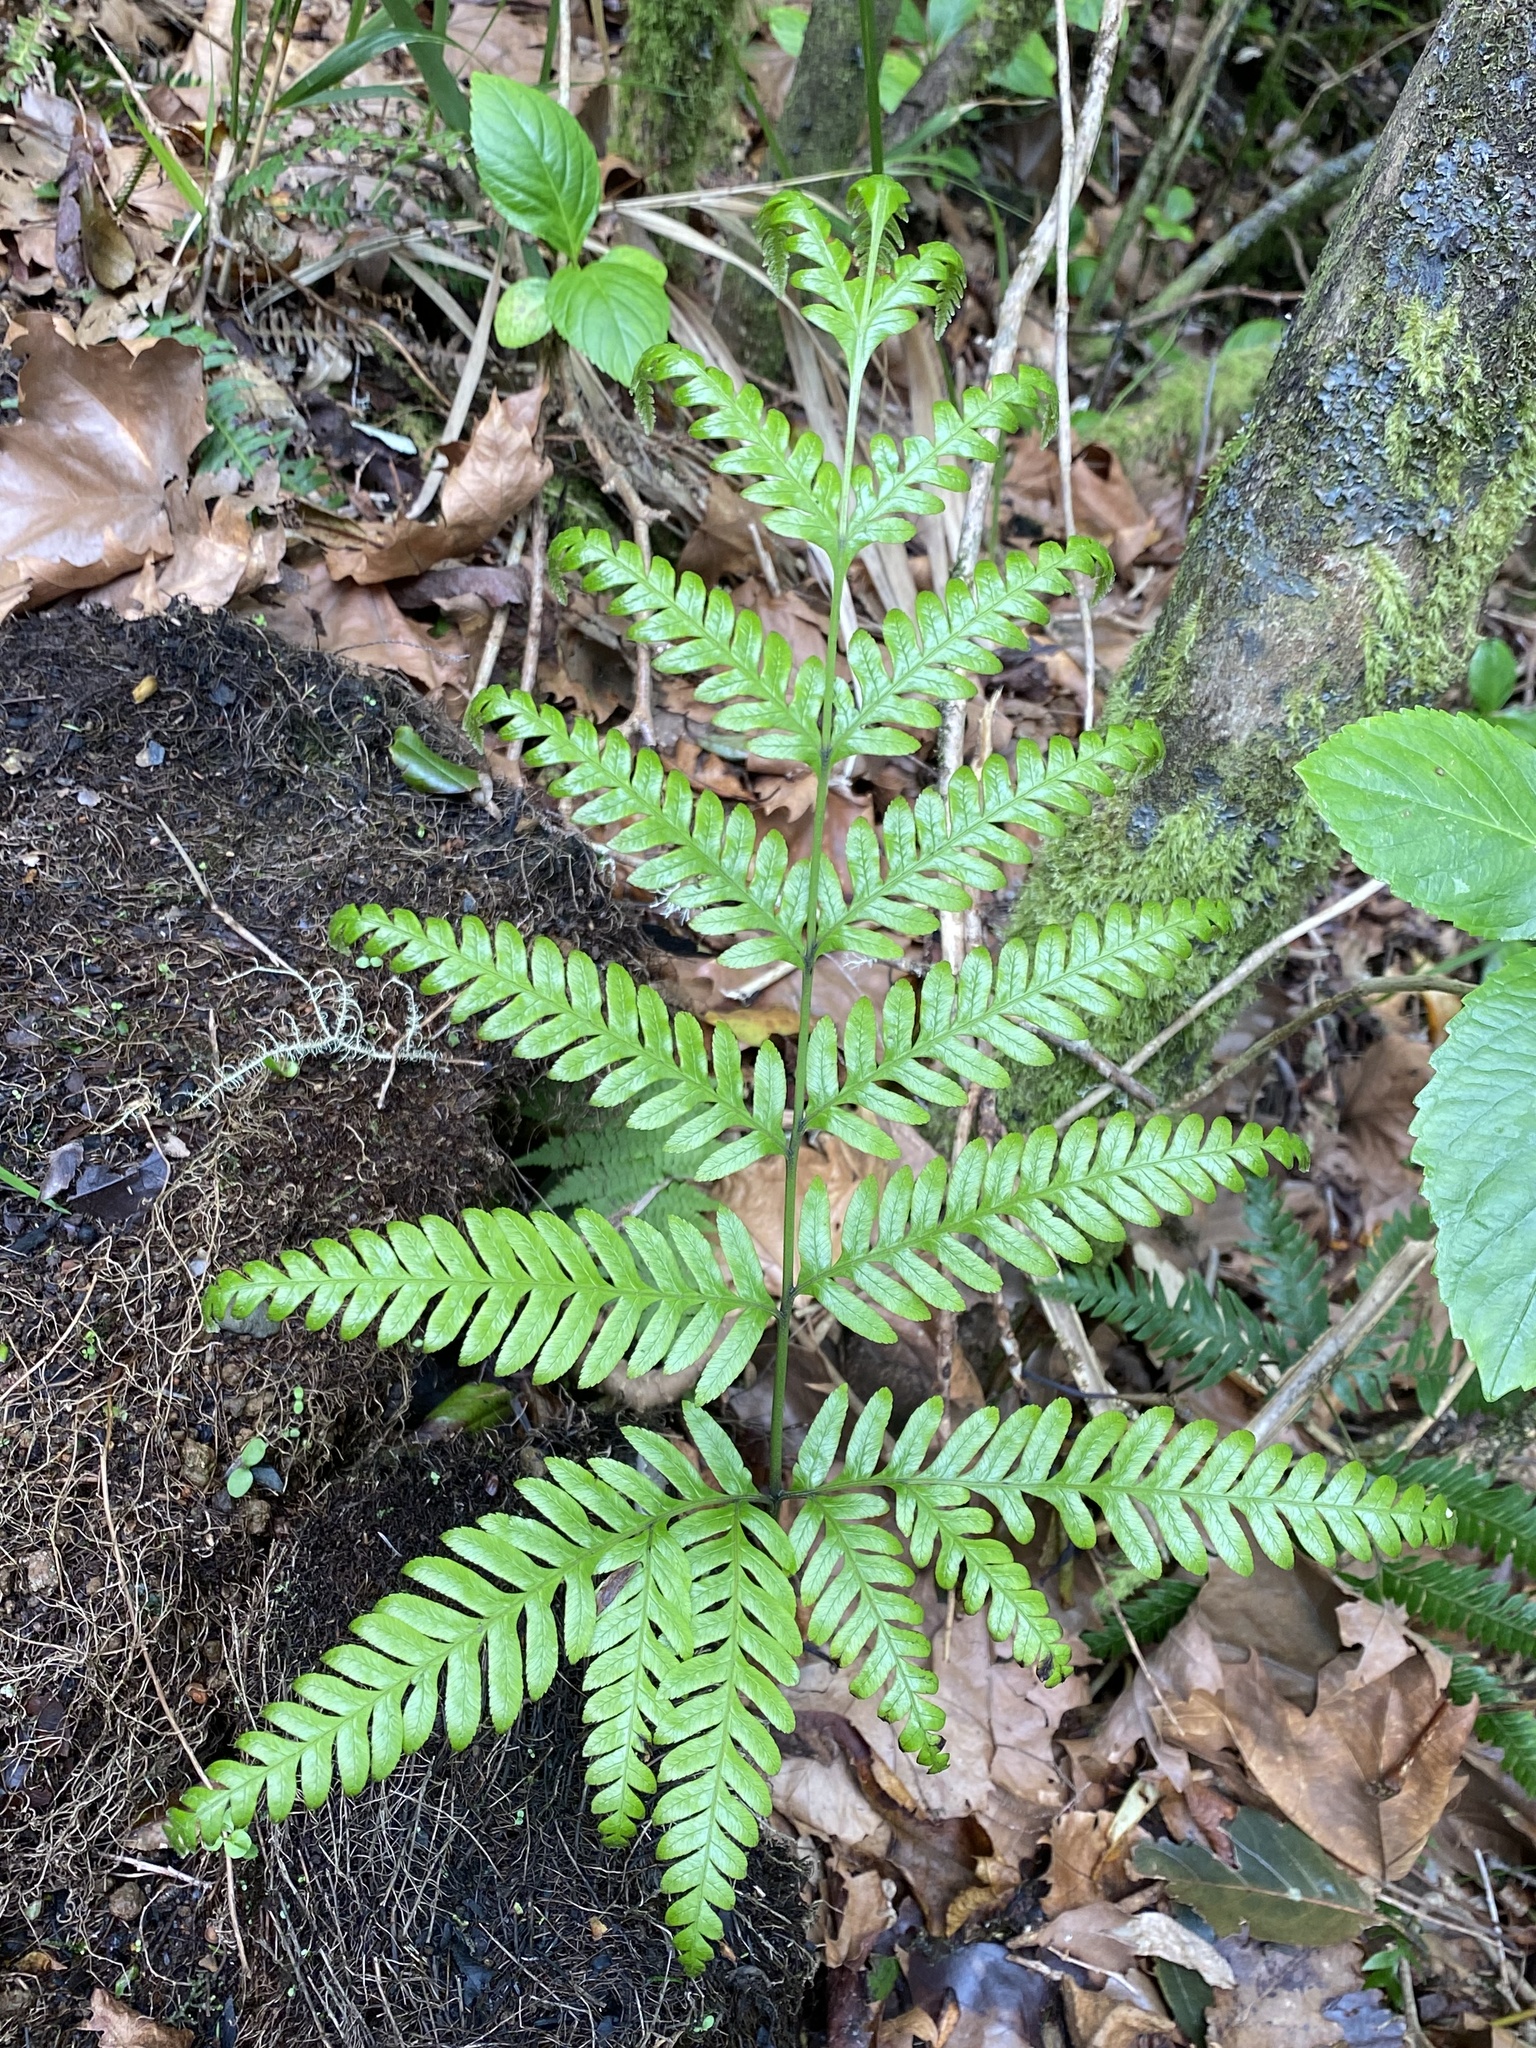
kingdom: Plantae
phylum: Tracheophyta
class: Polypodiopsida
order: Polypodiales
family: Pteridaceae
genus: Pteris
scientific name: Pteris incompleta
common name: Laurisilva brake
